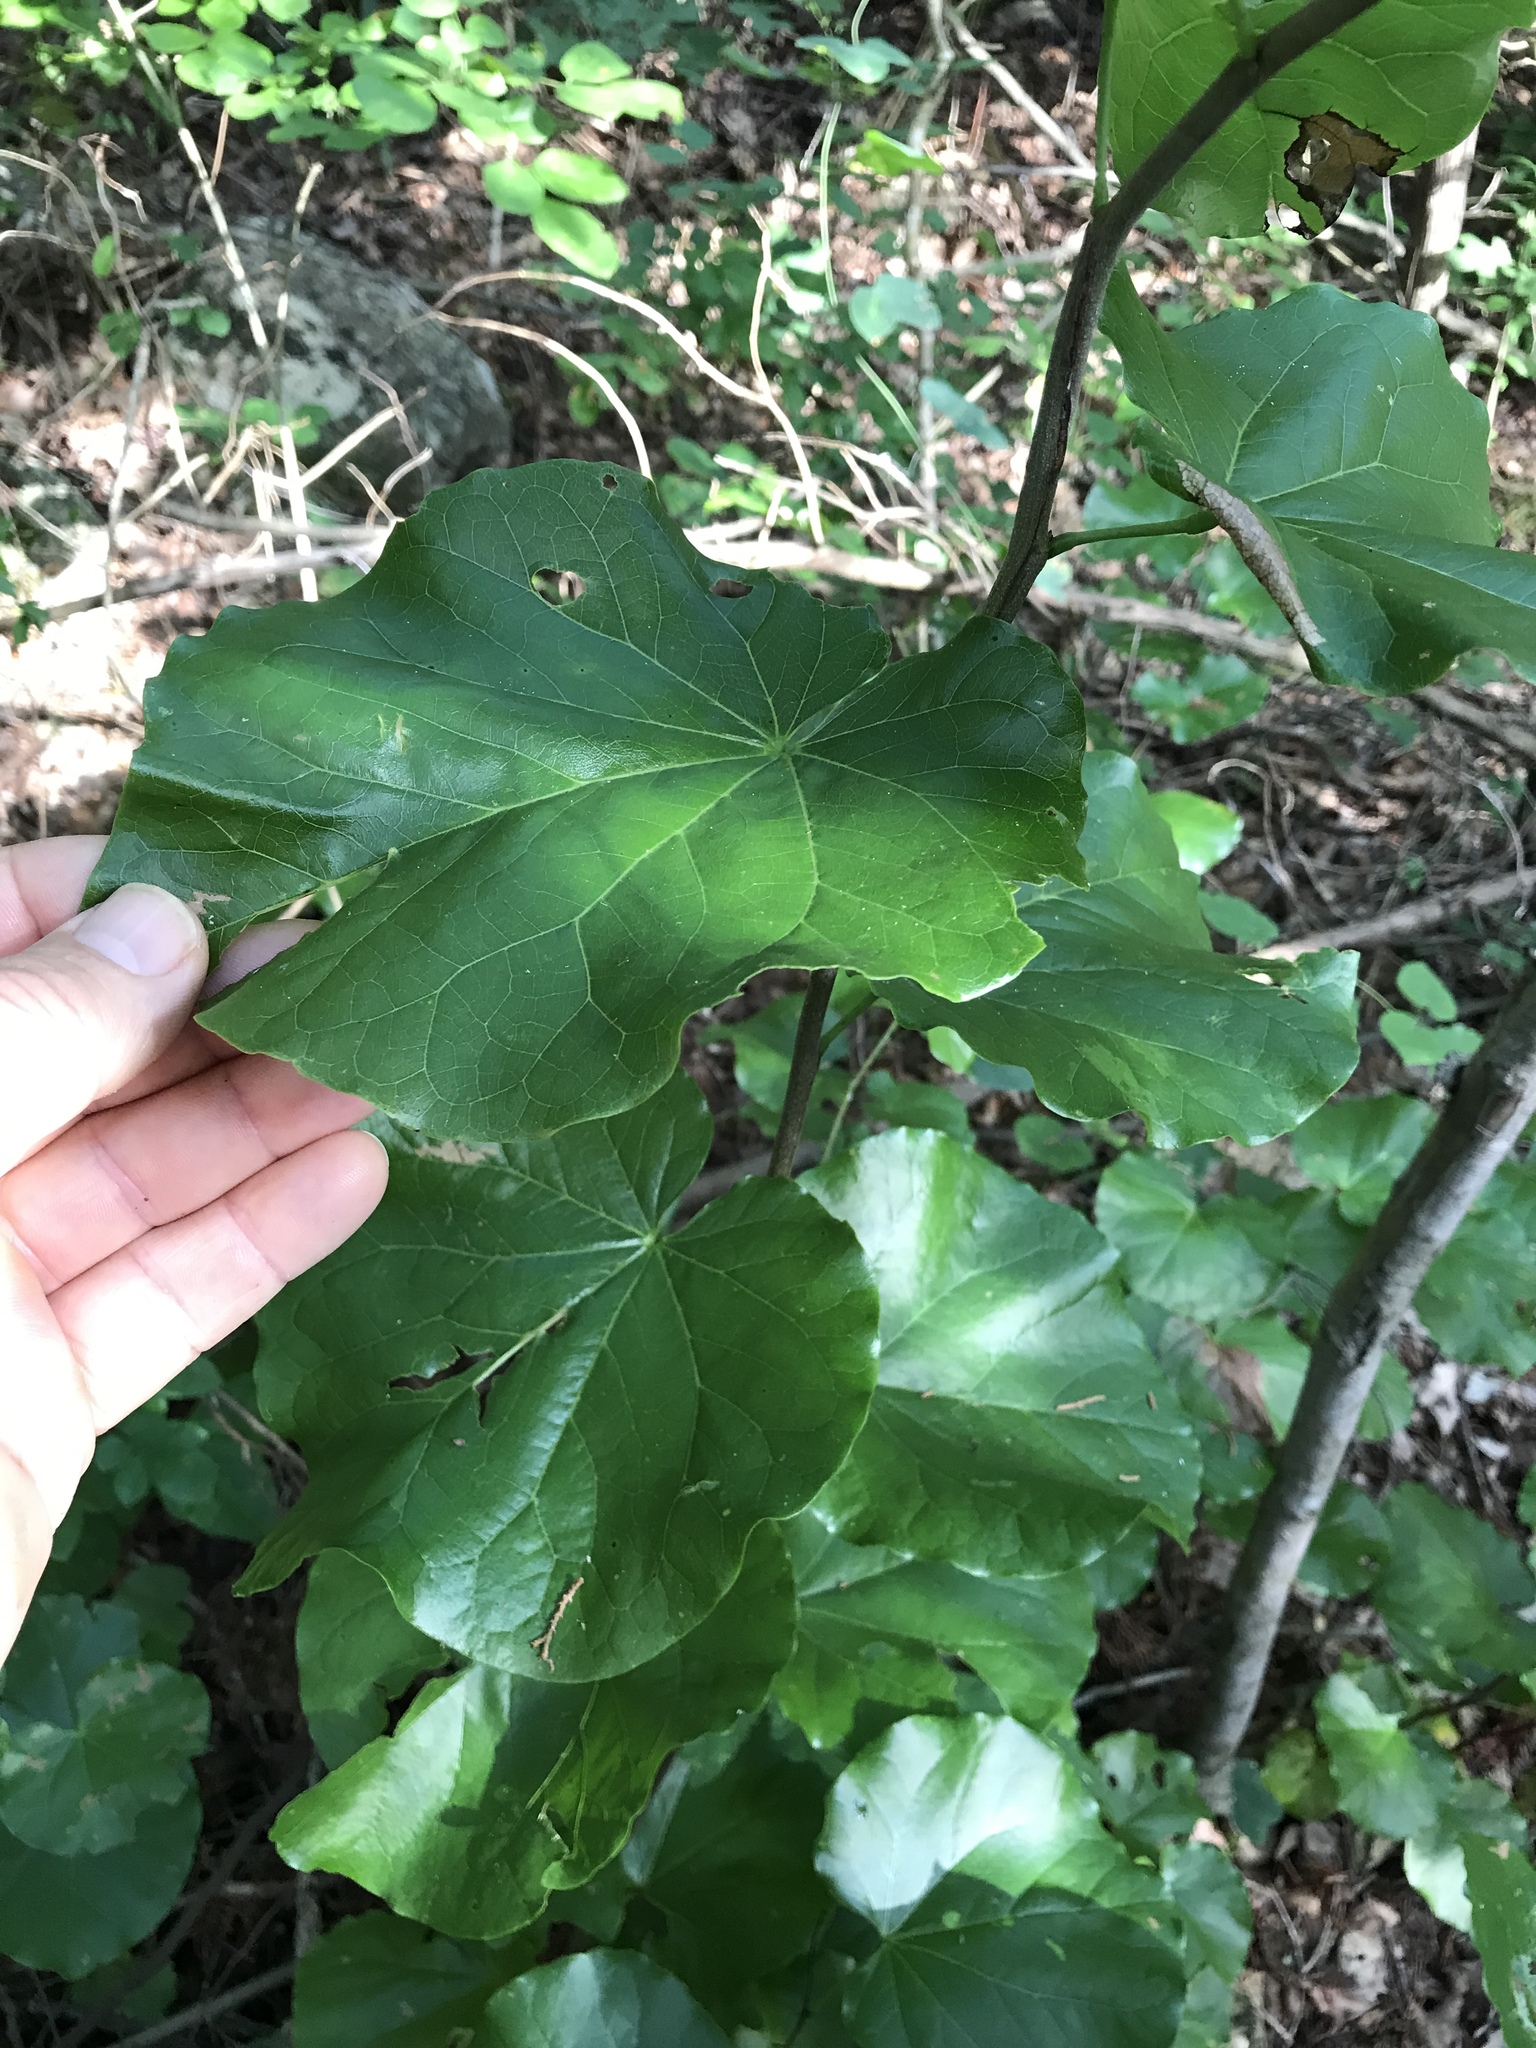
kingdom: Plantae
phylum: Tracheophyta
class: Magnoliopsida
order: Fabales
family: Fabaceae
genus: Cercis
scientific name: Cercis canadensis
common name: Eastern redbud
